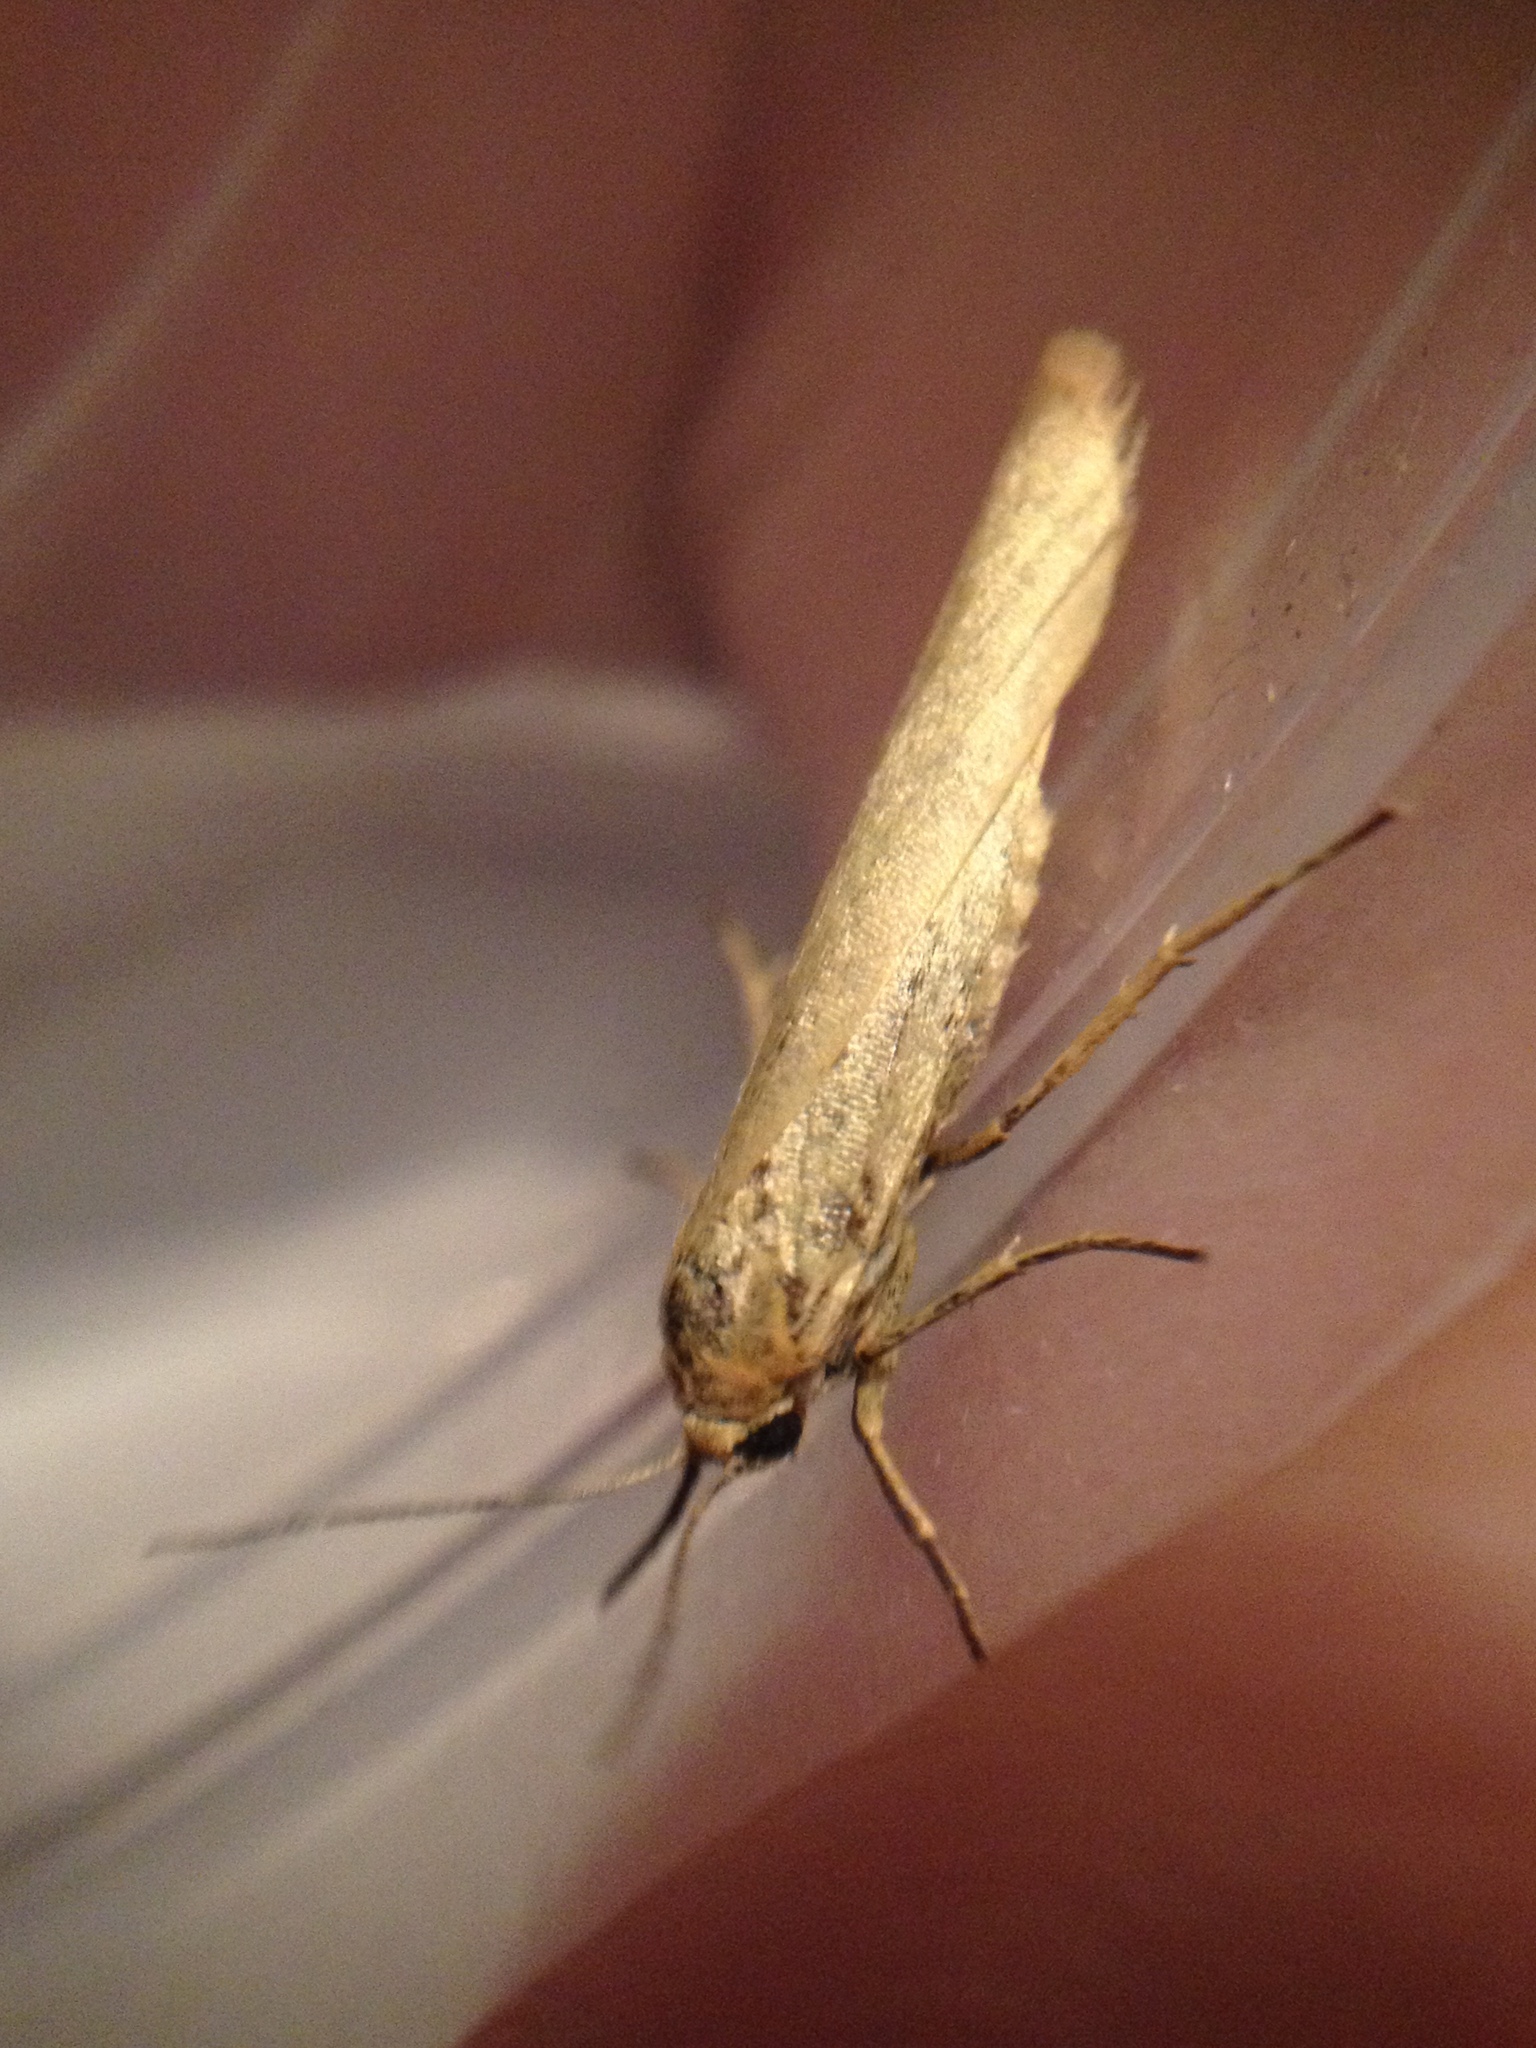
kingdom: Animalia
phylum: Arthropoda
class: Insecta
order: Lepidoptera
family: Erebidae
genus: Indalia
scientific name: Indalia lutarella
